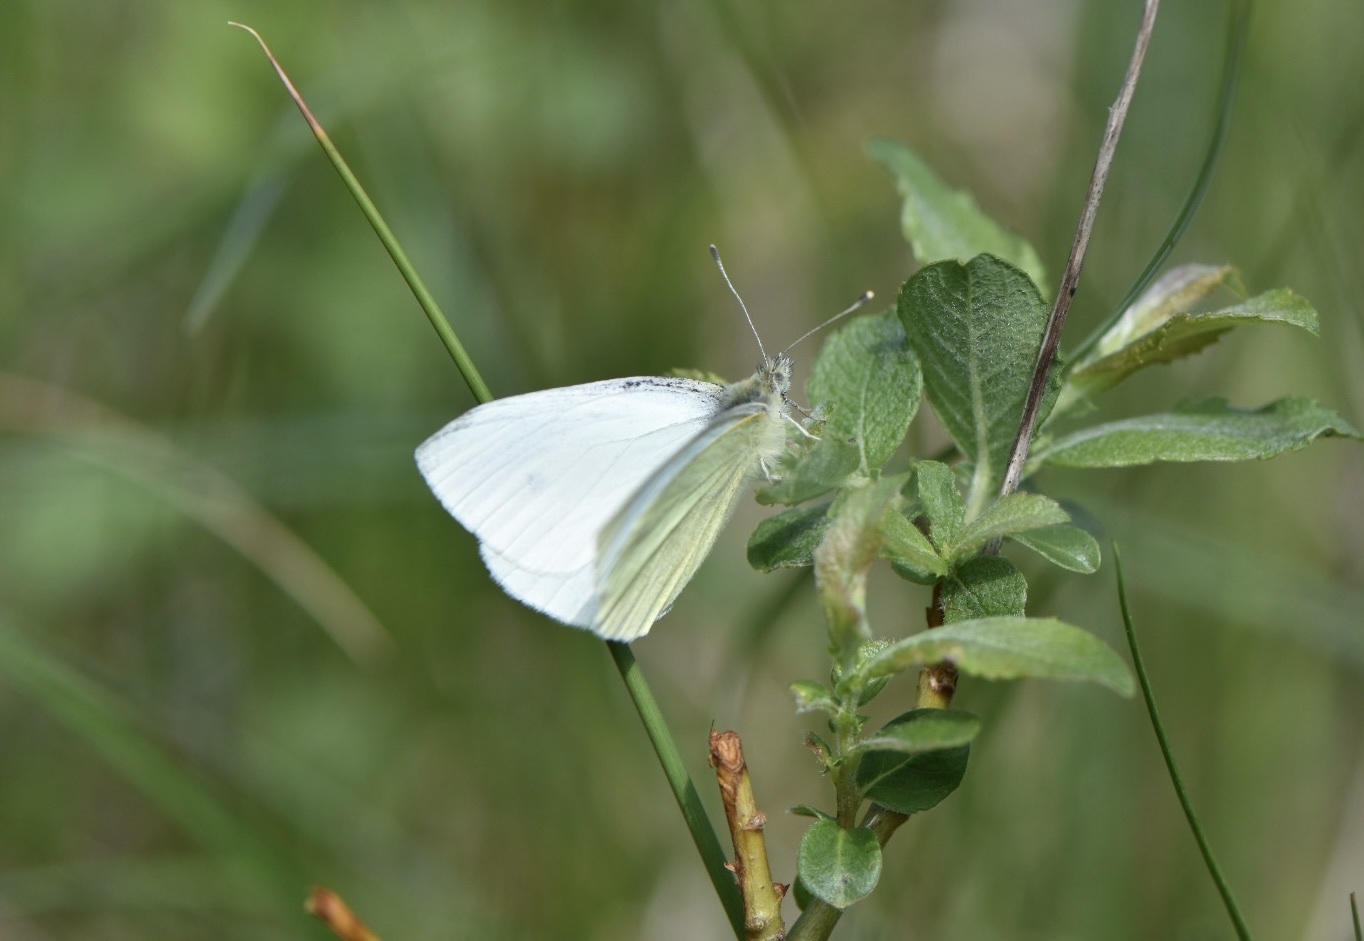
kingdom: Animalia
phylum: Arthropoda
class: Insecta
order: Lepidoptera
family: Pieridae
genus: Pieris
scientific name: Pieris rapae
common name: Small white
